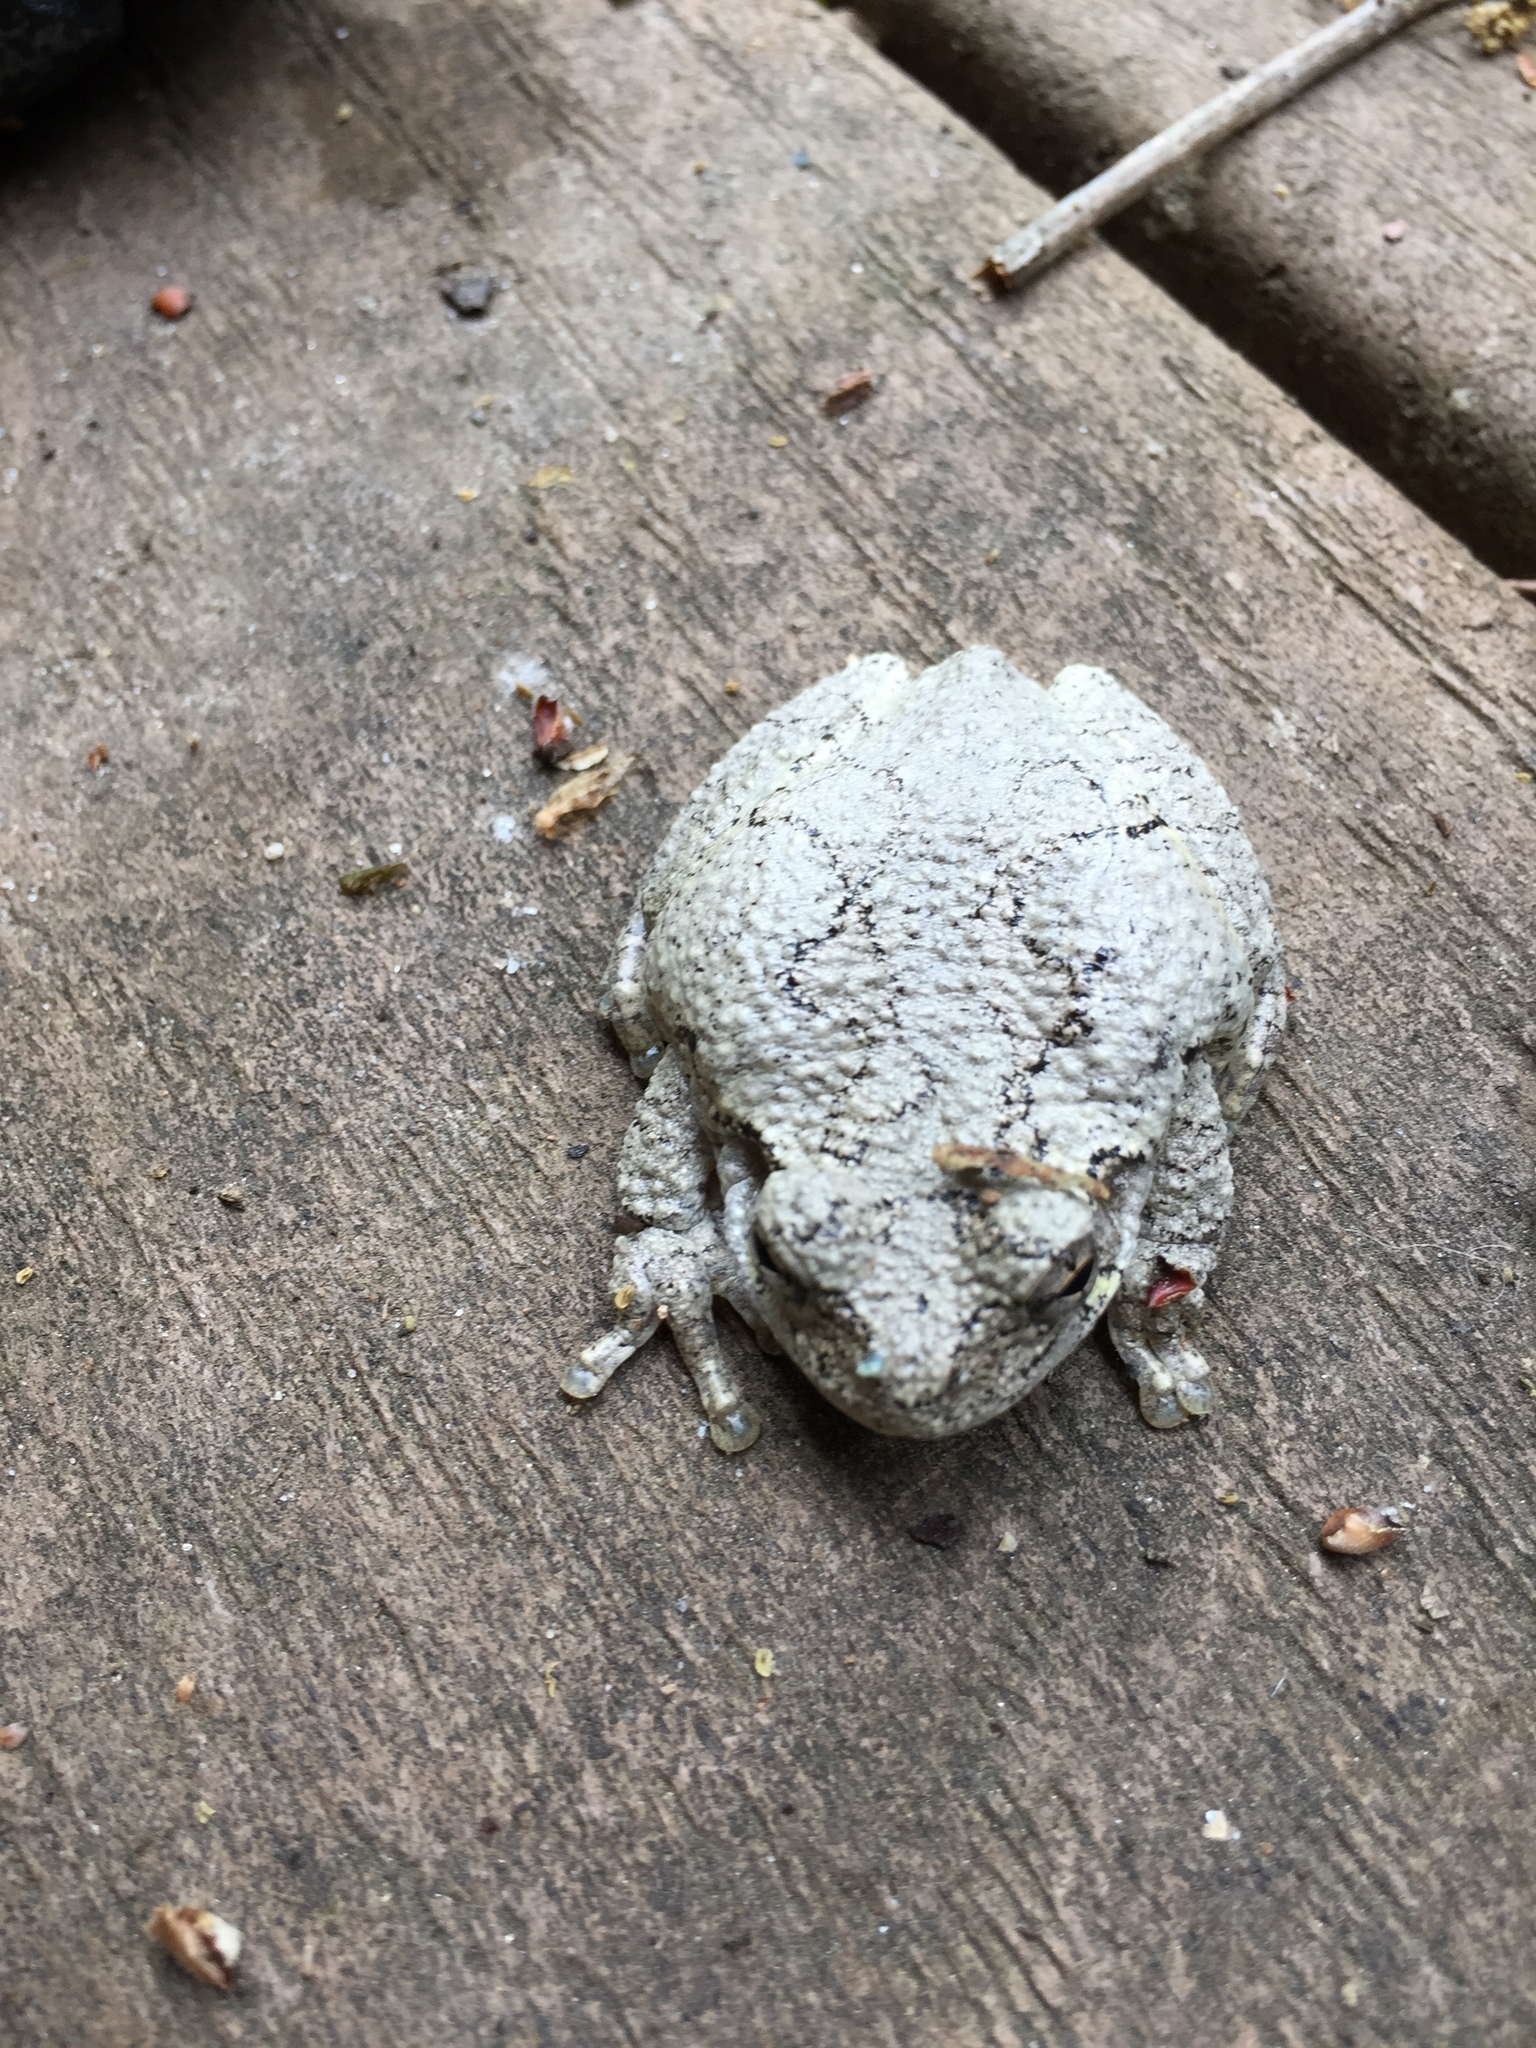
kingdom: Animalia
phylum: Chordata
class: Amphibia
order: Anura
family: Hylidae
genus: Hyla
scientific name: Hyla
